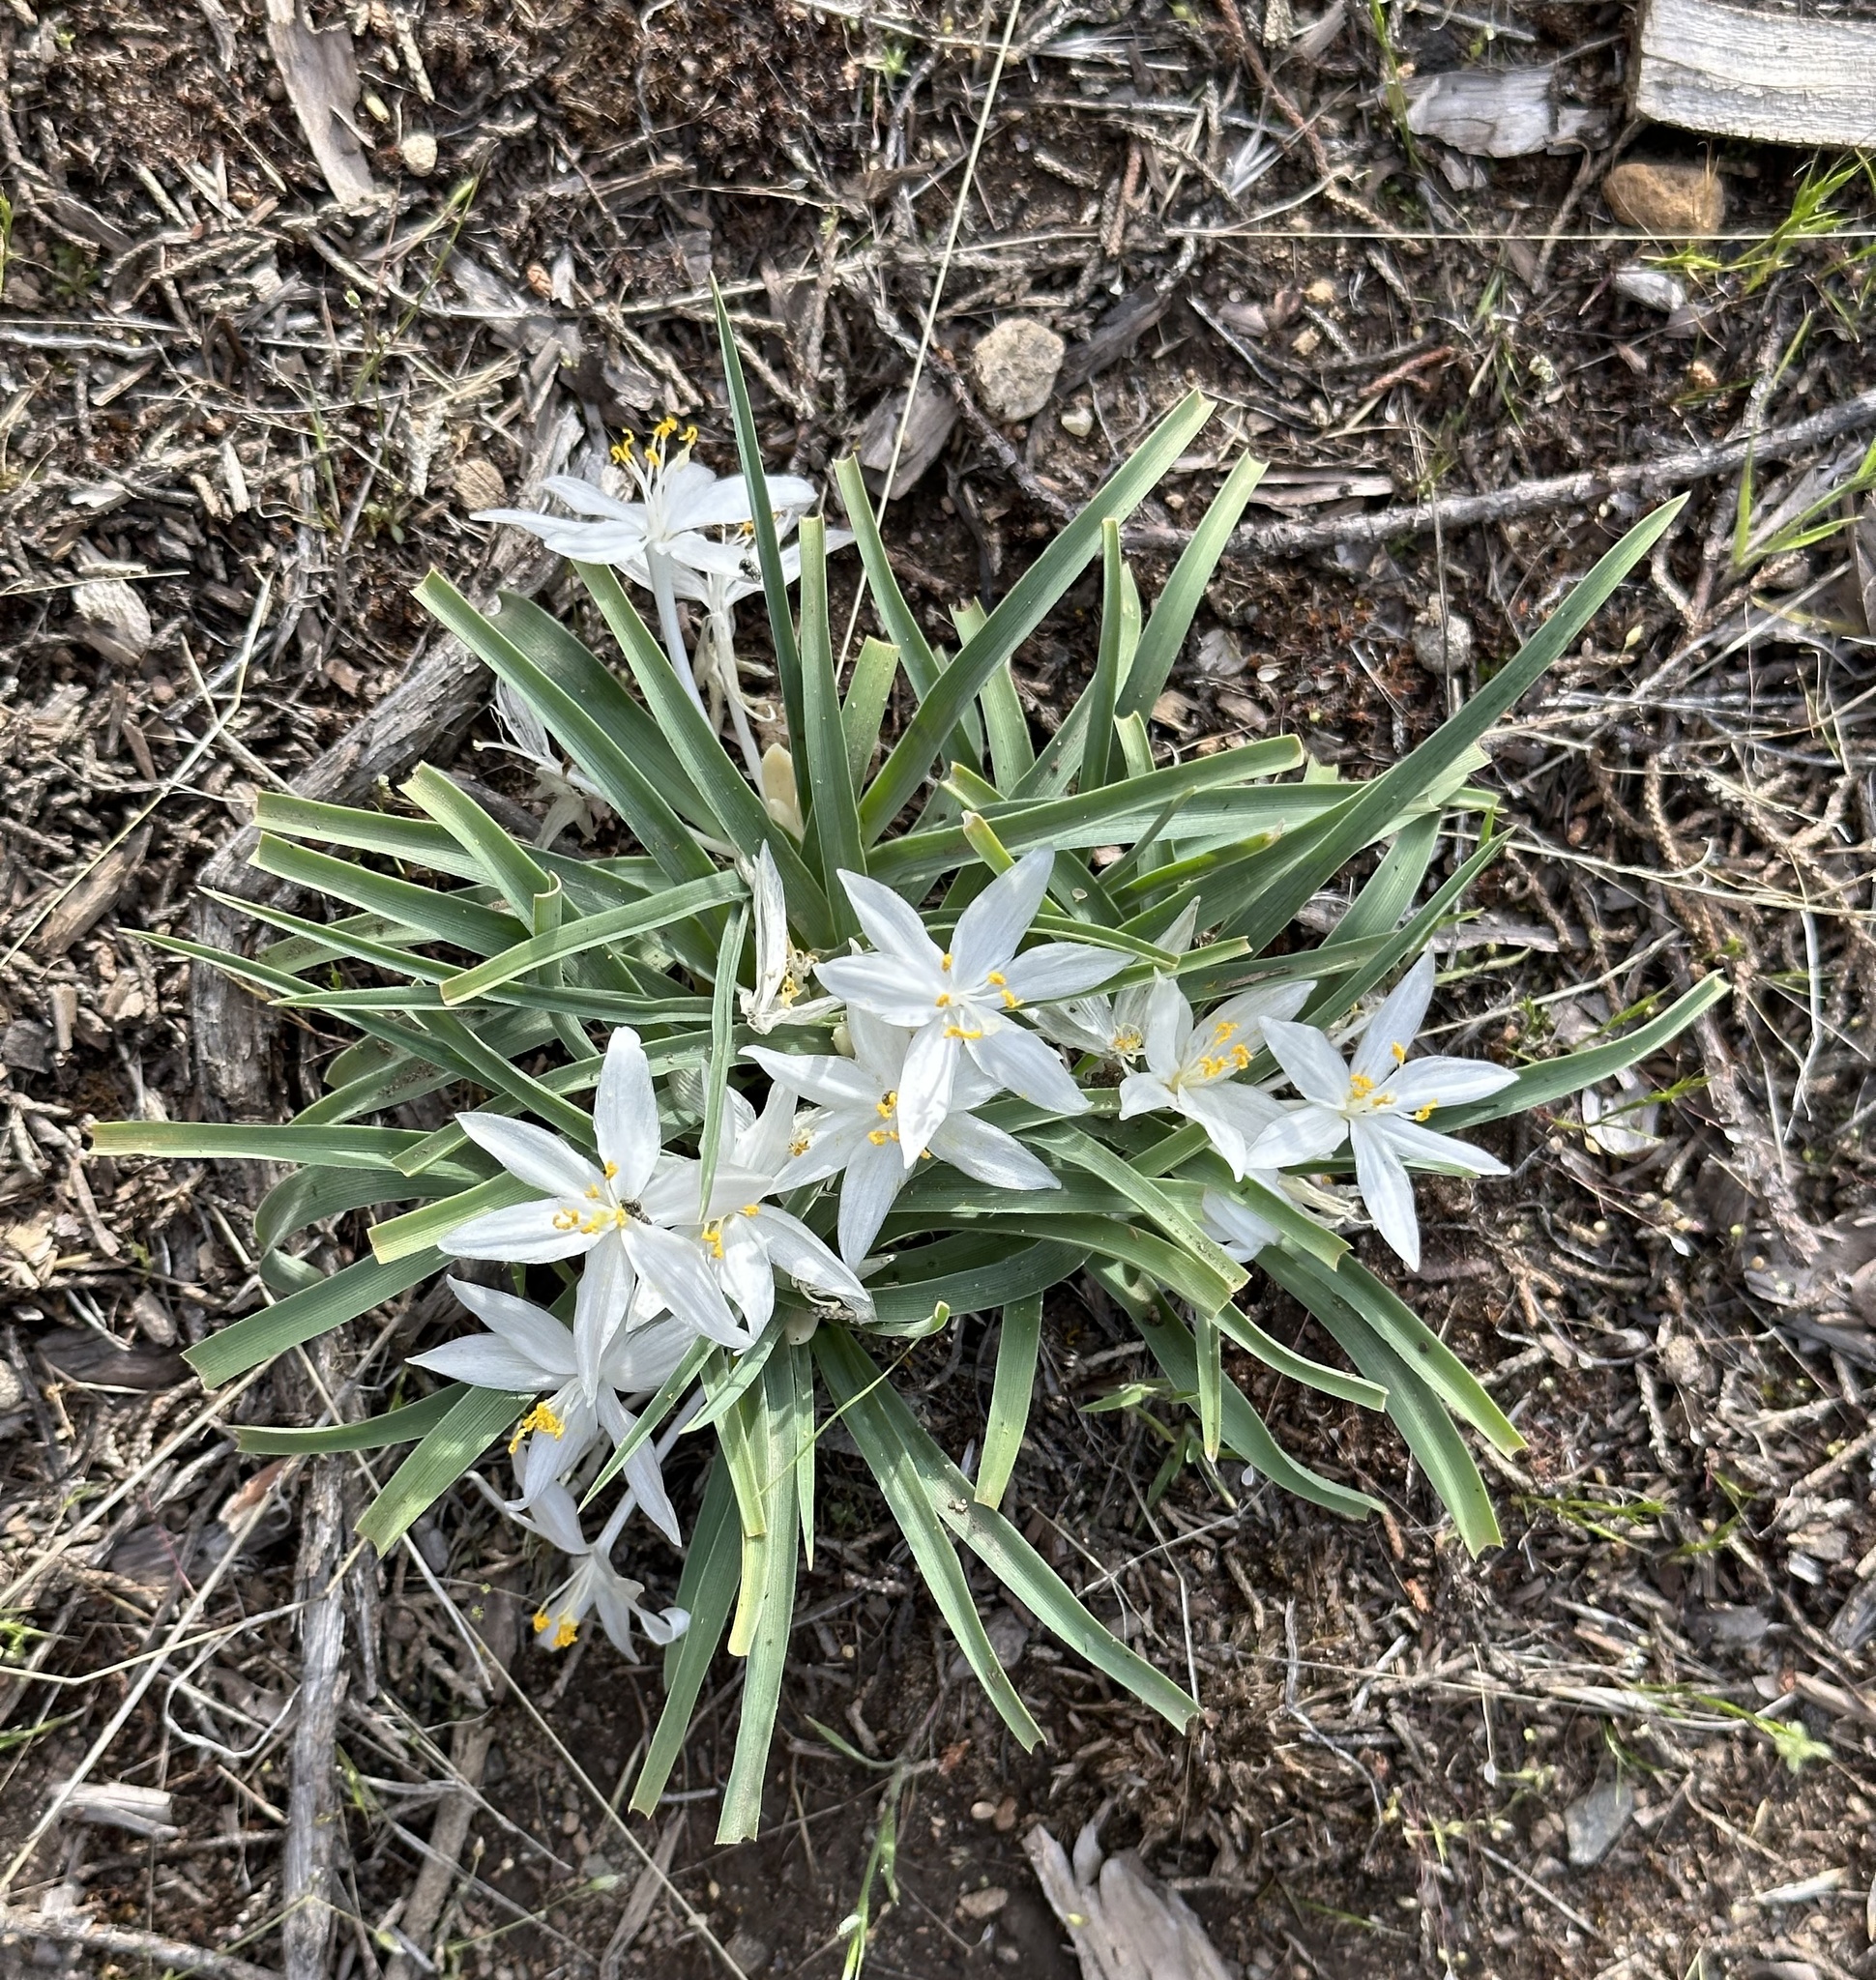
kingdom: Plantae
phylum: Tracheophyta
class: Liliopsida
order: Asparagales
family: Asparagaceae
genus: Leucocrinum
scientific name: Leucocrinum montanum
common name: Mountain-lily
